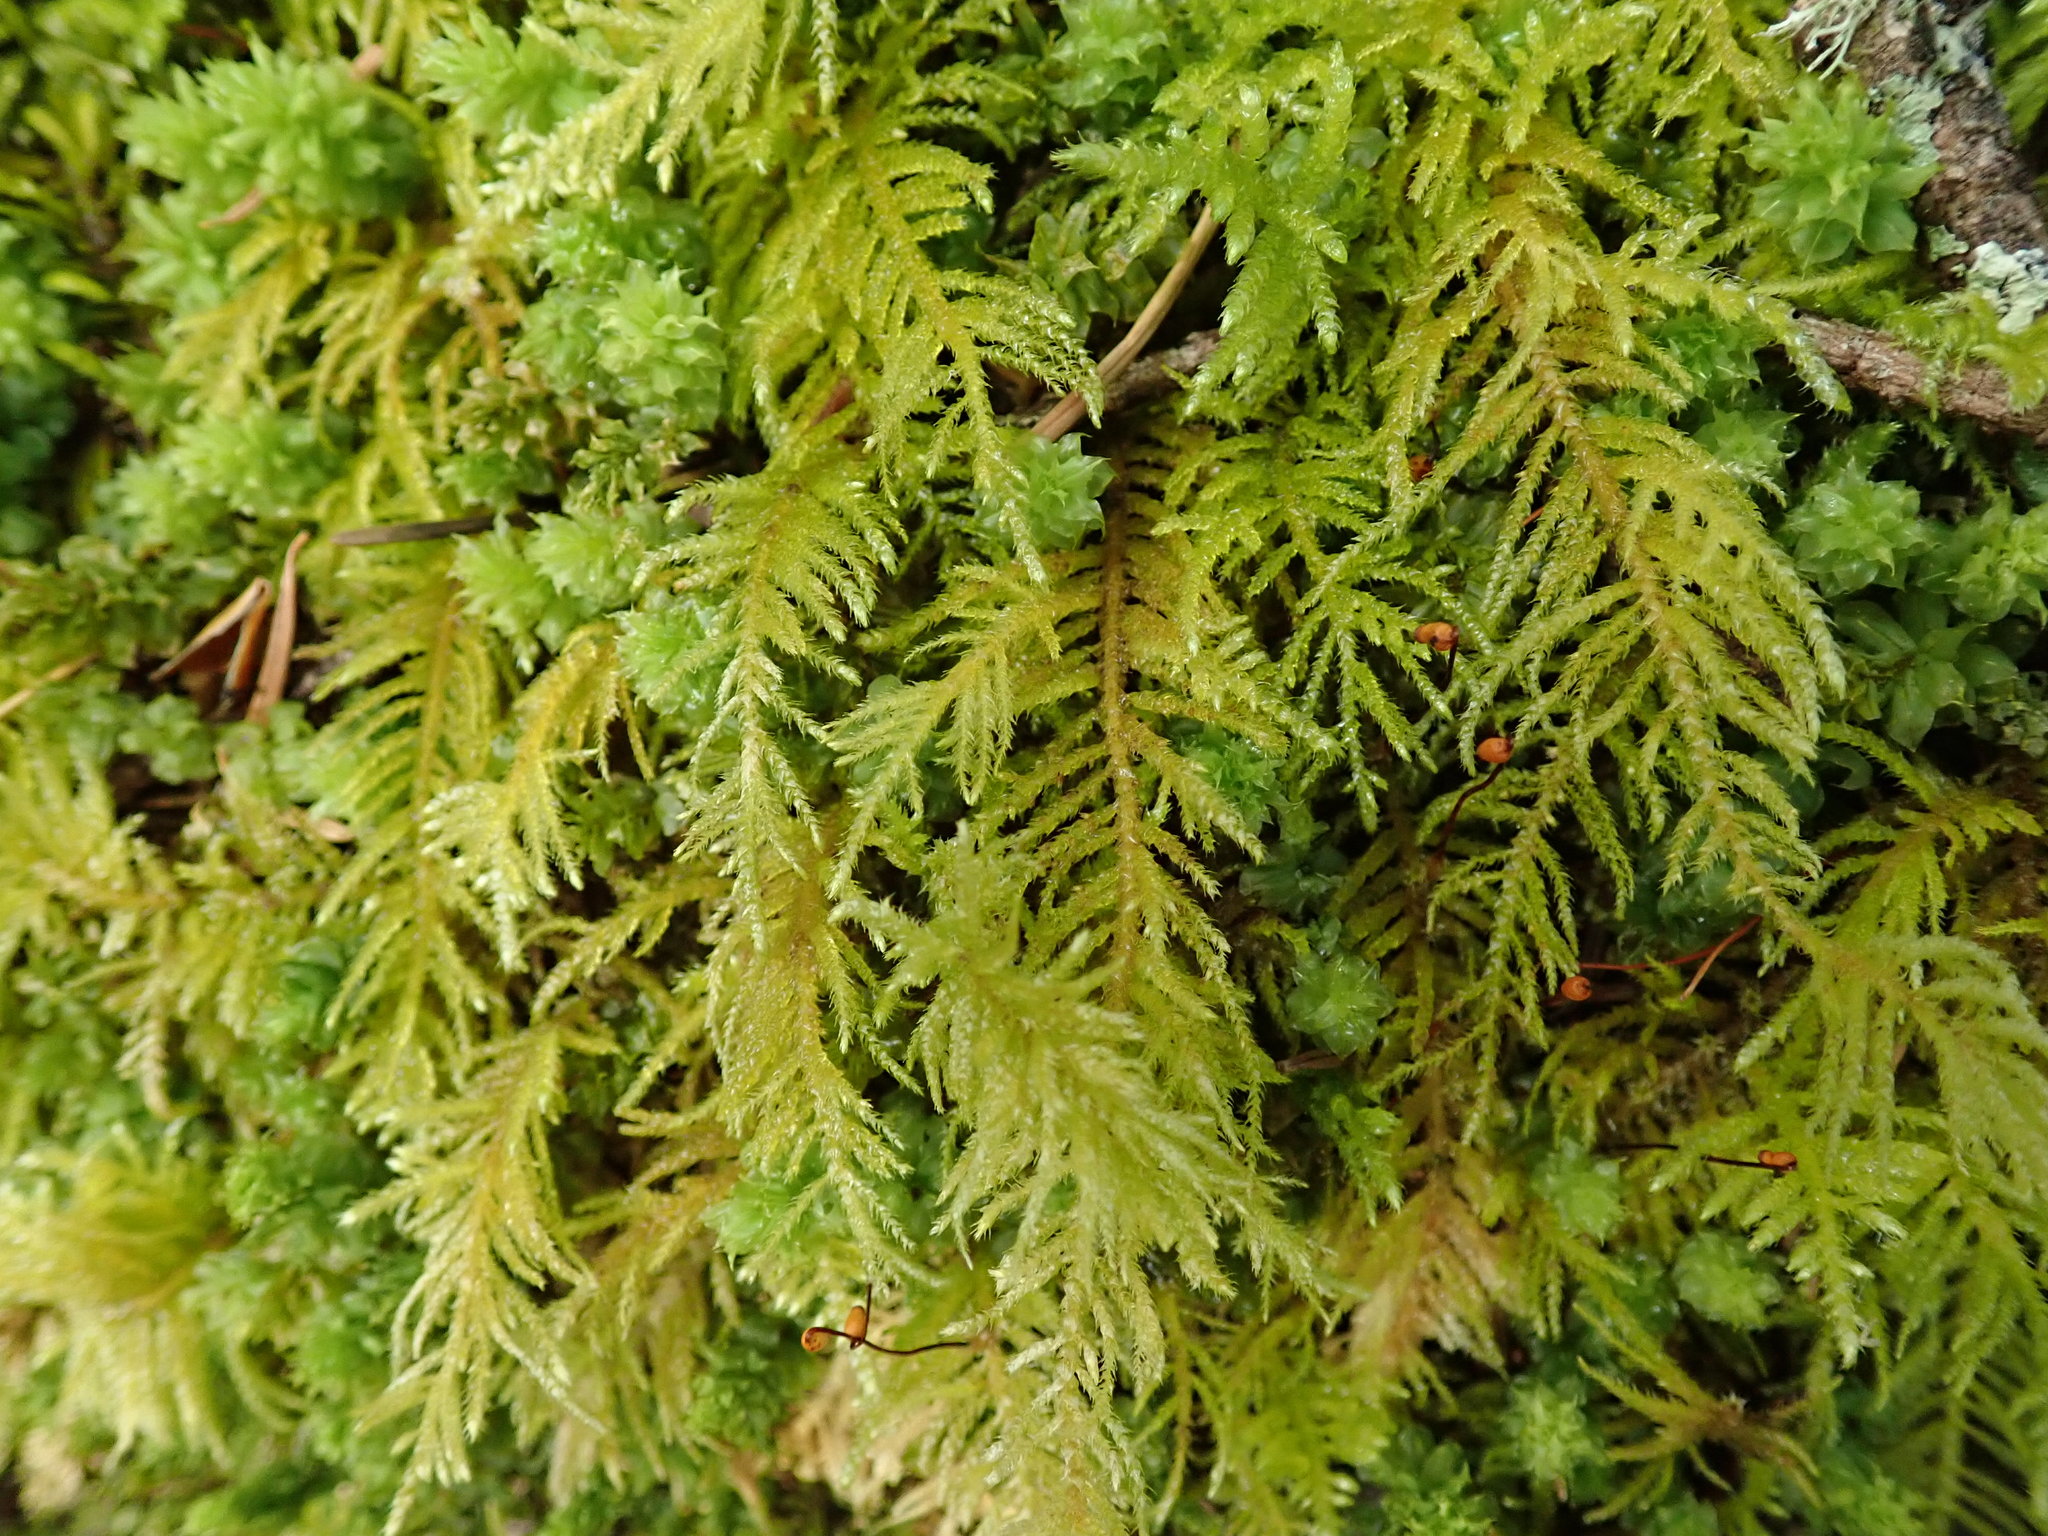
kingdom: Plantae
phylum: Bryophyta
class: Bryopsida
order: Hypnales
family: Brachytheciaceae
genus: Kindbergia
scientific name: Kindbergia oregana
